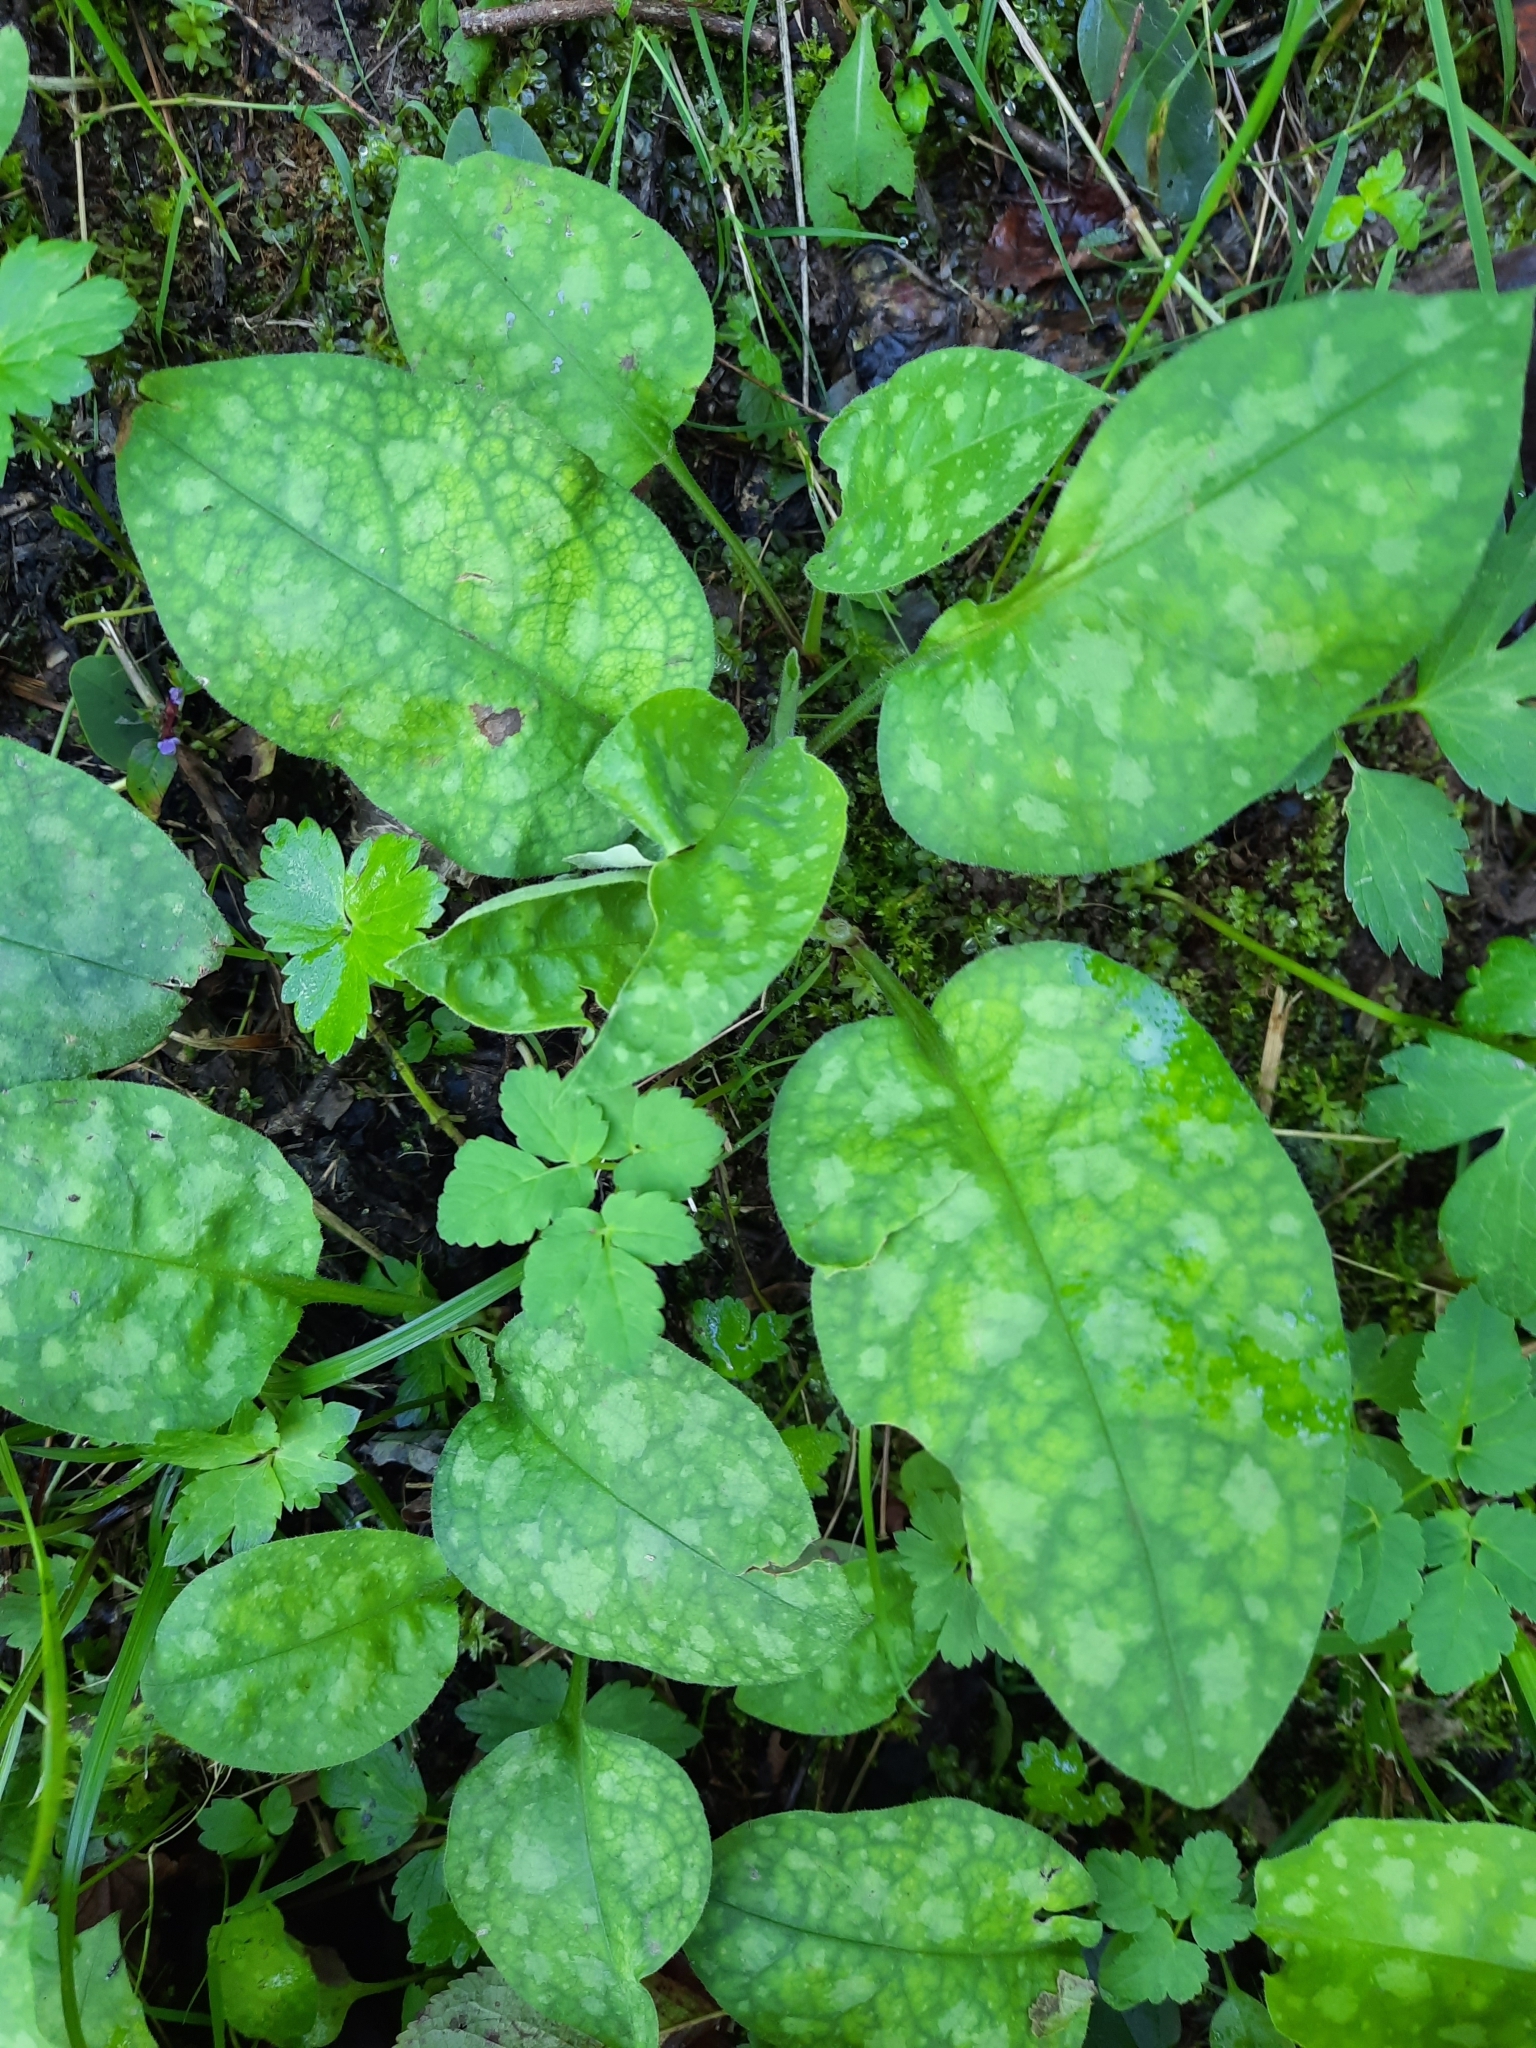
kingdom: Plantae
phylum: Tracheophyta
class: Magnoliopsida
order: Boraginales
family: Boraginaceae
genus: Pulmonaria
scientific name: Pulmonaria officinalis
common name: Lungwort
